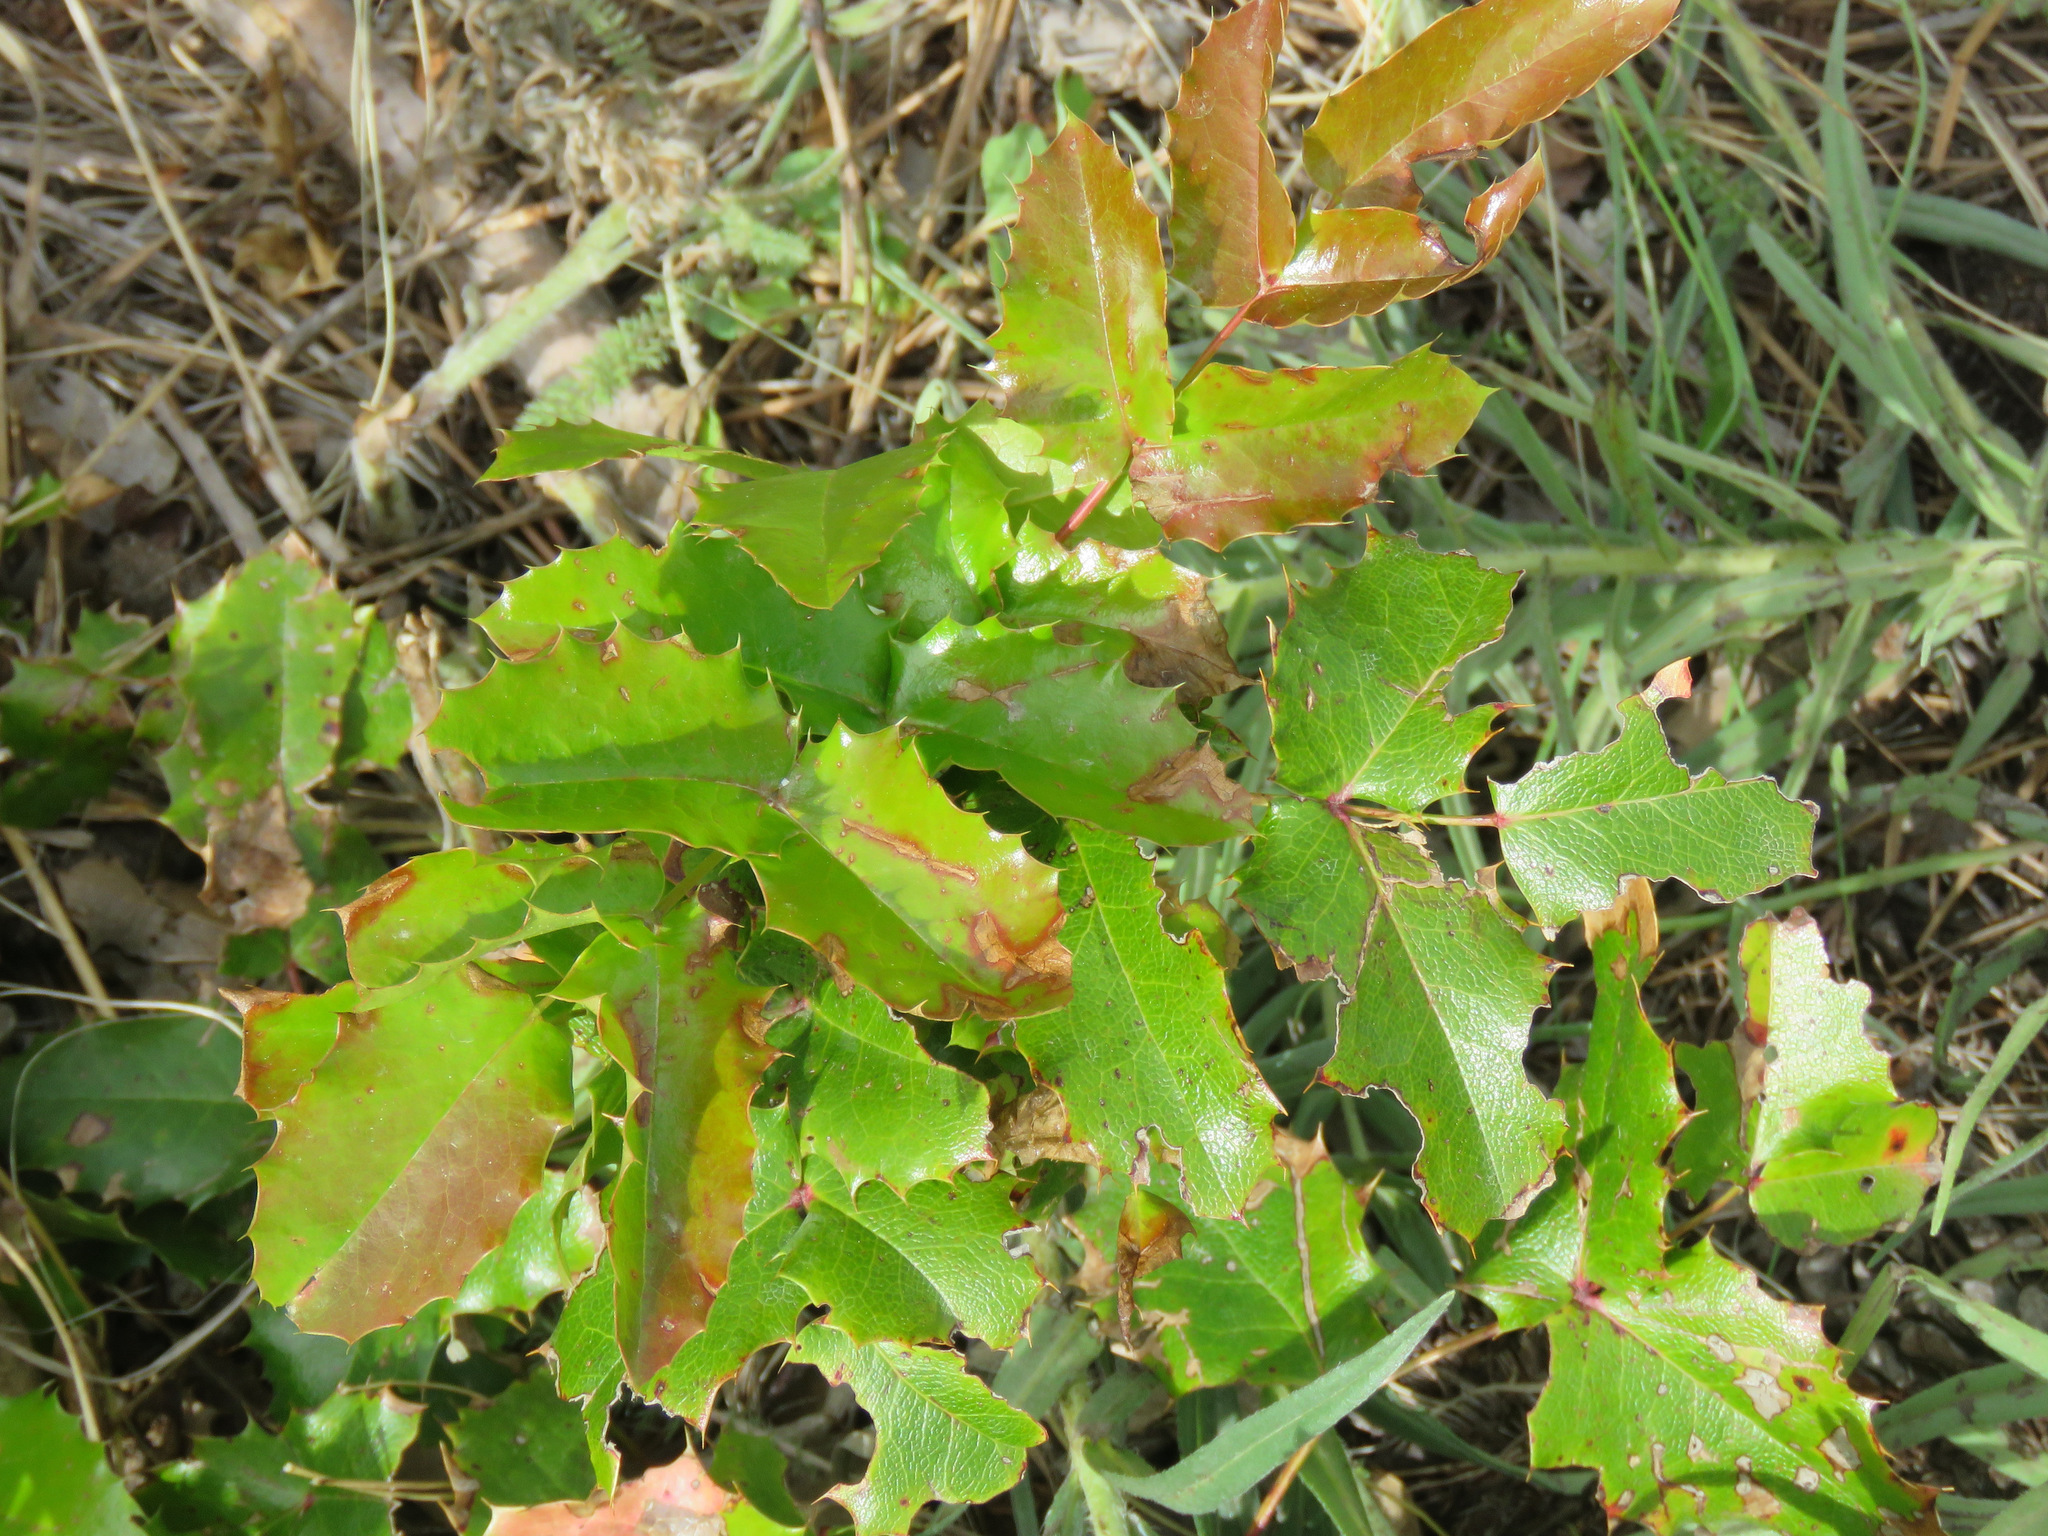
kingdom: Plantae
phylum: Tracheophyta
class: Magnoliopsida
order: Ranunculales
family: Berberidaceae
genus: Mahonia
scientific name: Mahonia aquifolium
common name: Oregon-grape
